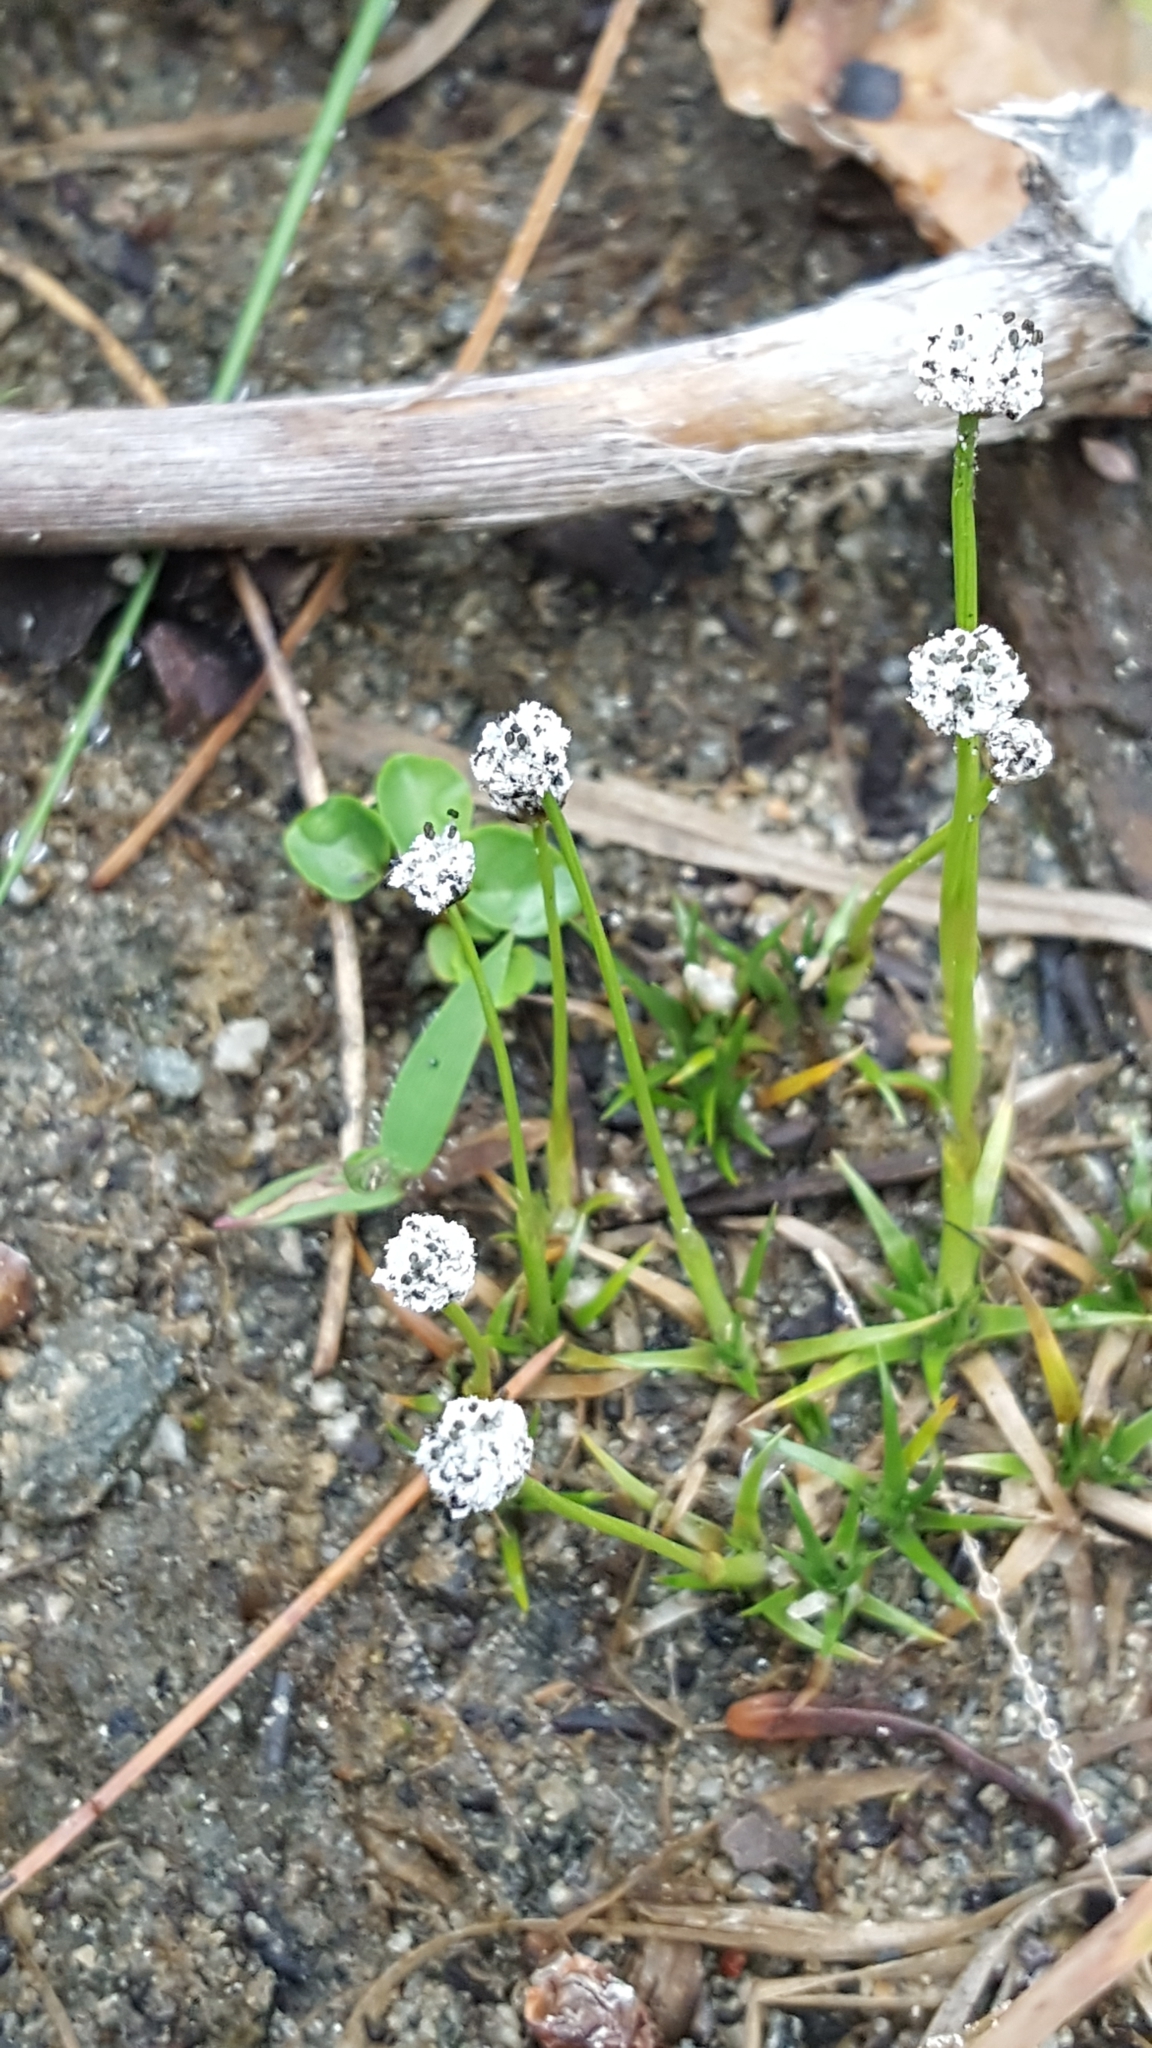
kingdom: Plantae
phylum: Tracheophyta
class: Liliopsida
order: Poales
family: Eriocaulaceae
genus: Eriocaulon
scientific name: Eriocaulon aquaticum
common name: Pipewort
